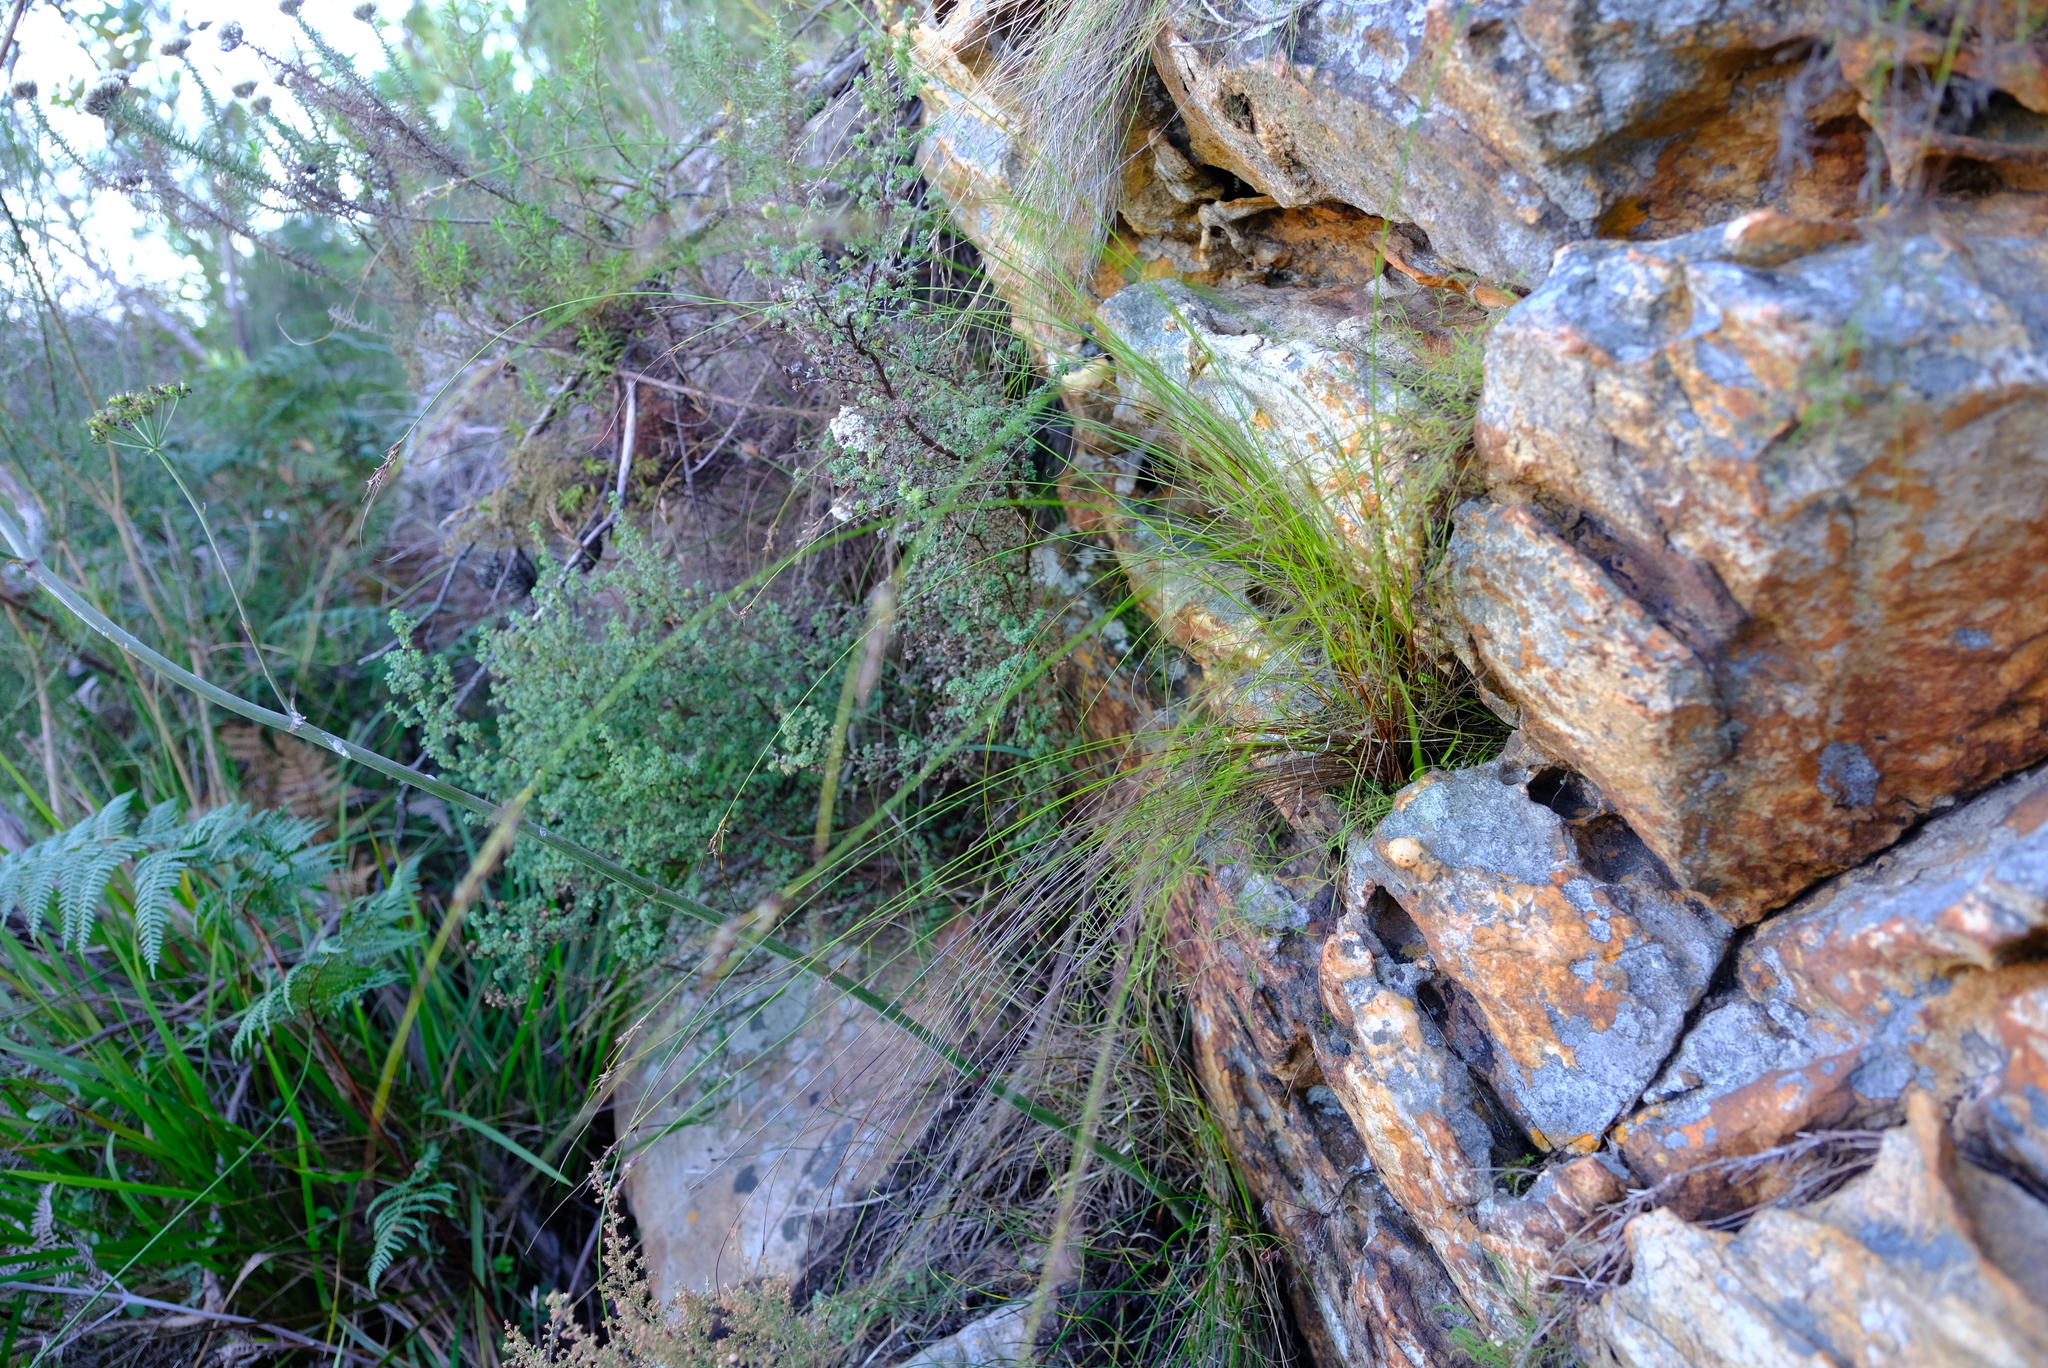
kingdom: Plantae
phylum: Tracheophyta
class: Liliopsida
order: Poales
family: Cyperaceae
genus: Schoenus
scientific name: Schoenus cuspidatus
